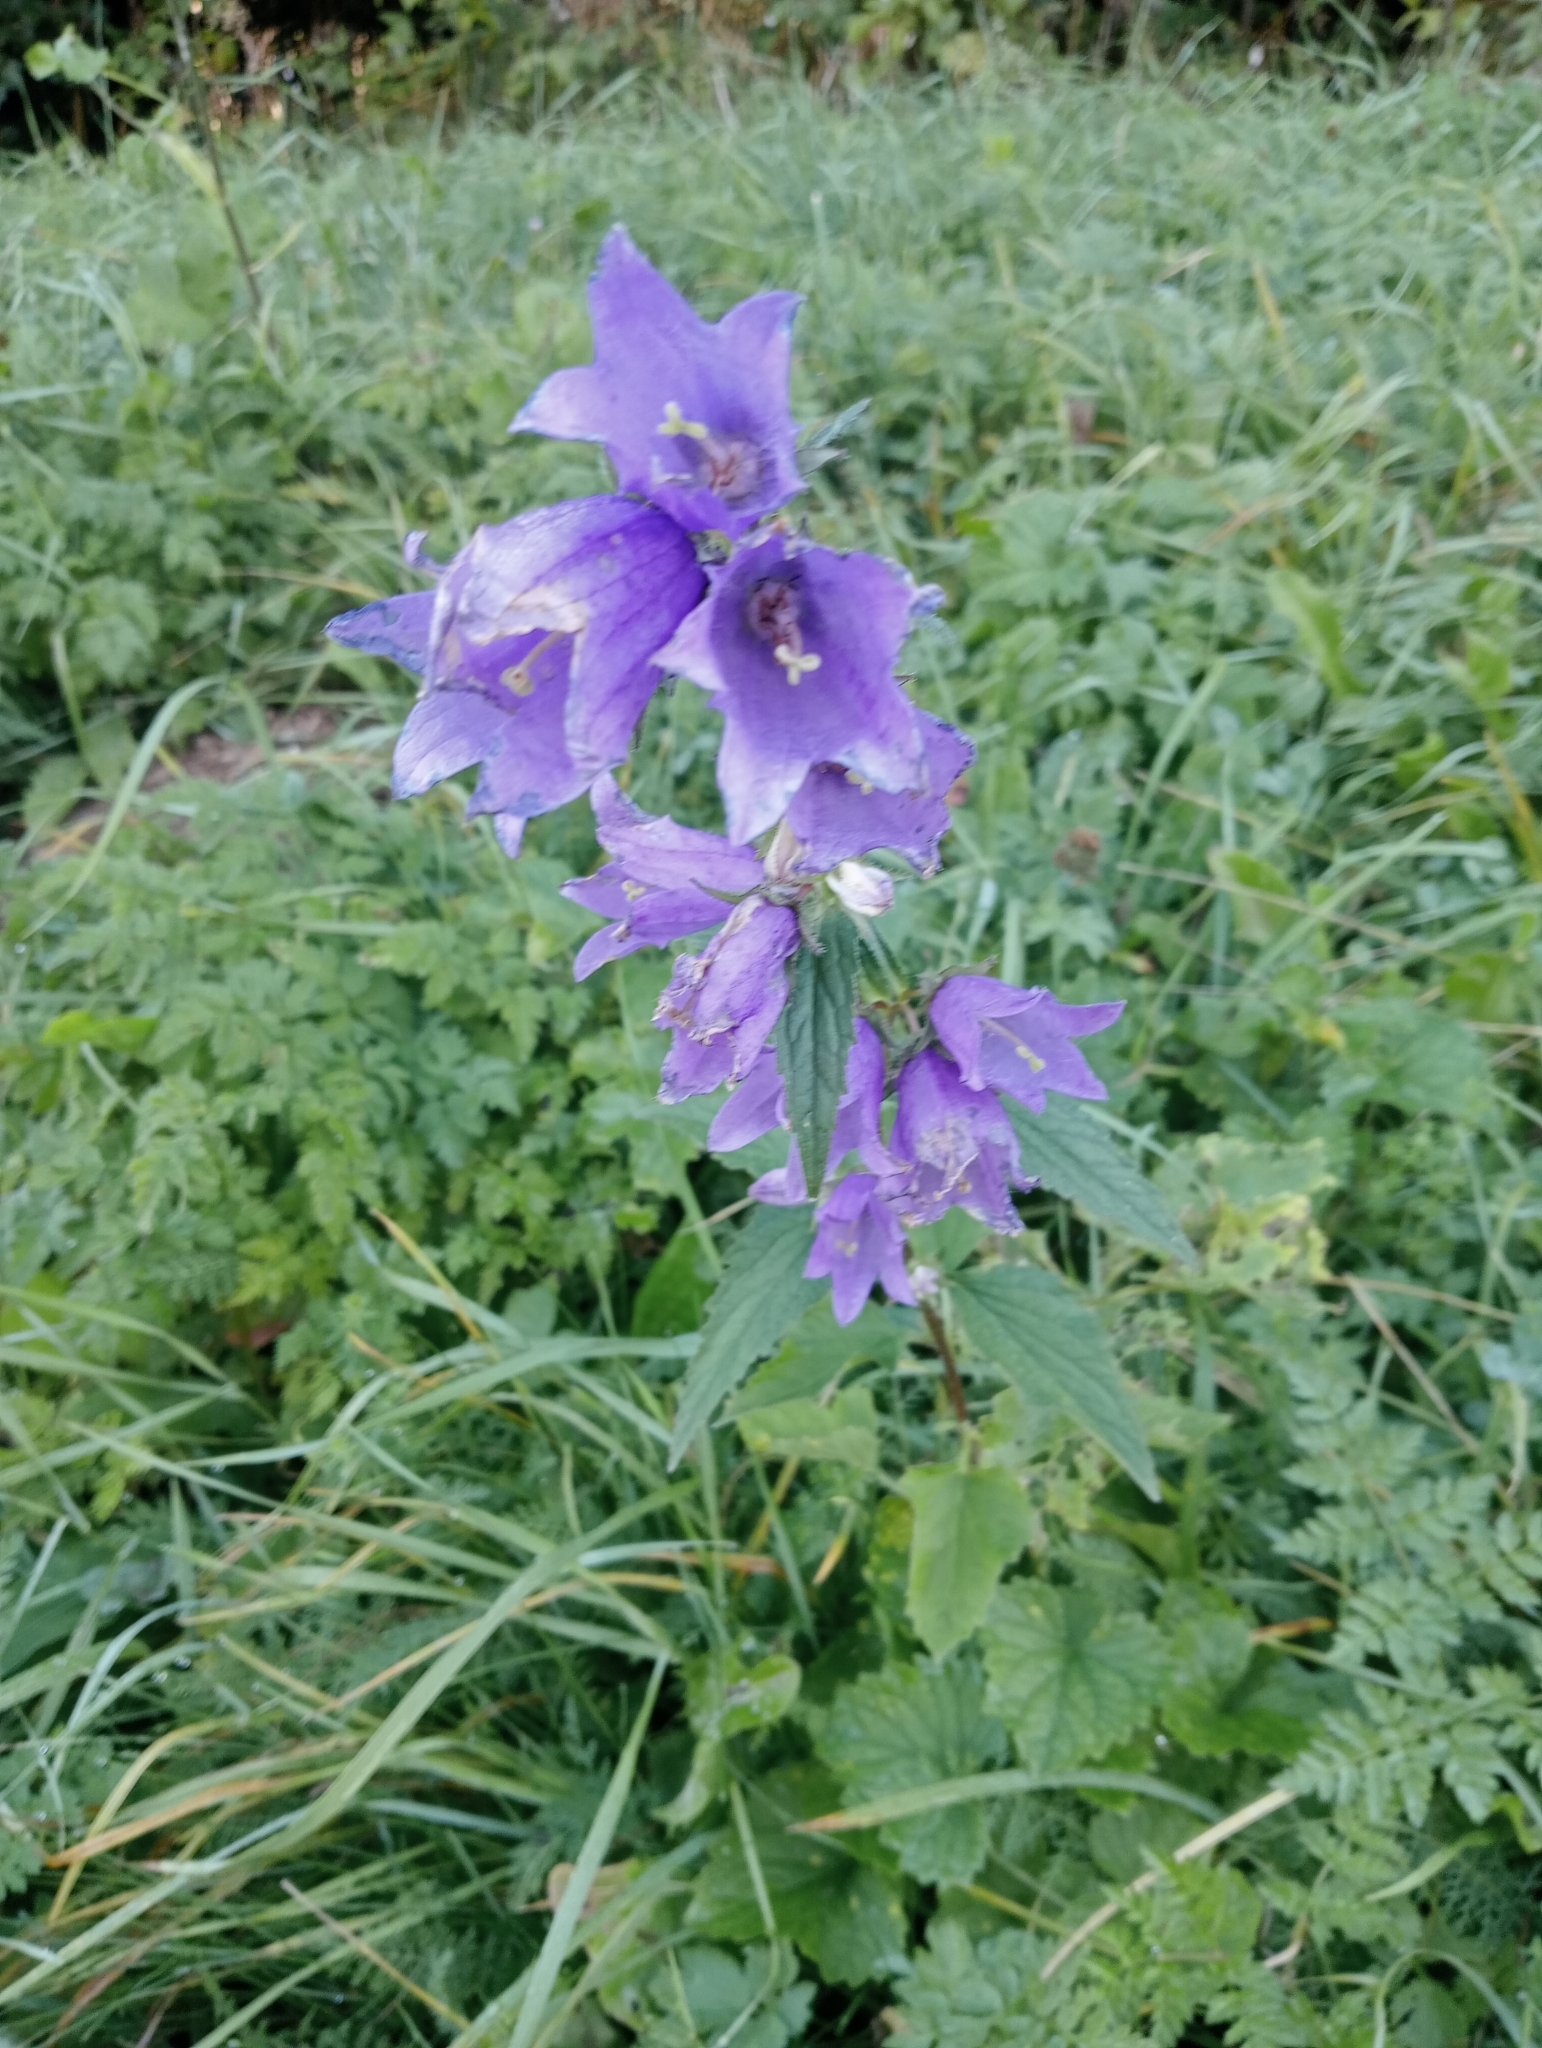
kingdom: Plantae
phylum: Tracheophyta
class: Magnoliopsida
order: Asterales
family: Campanulaceae
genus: Campanula
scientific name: Campanula trachelium
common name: Nettle-leaved bellflower
